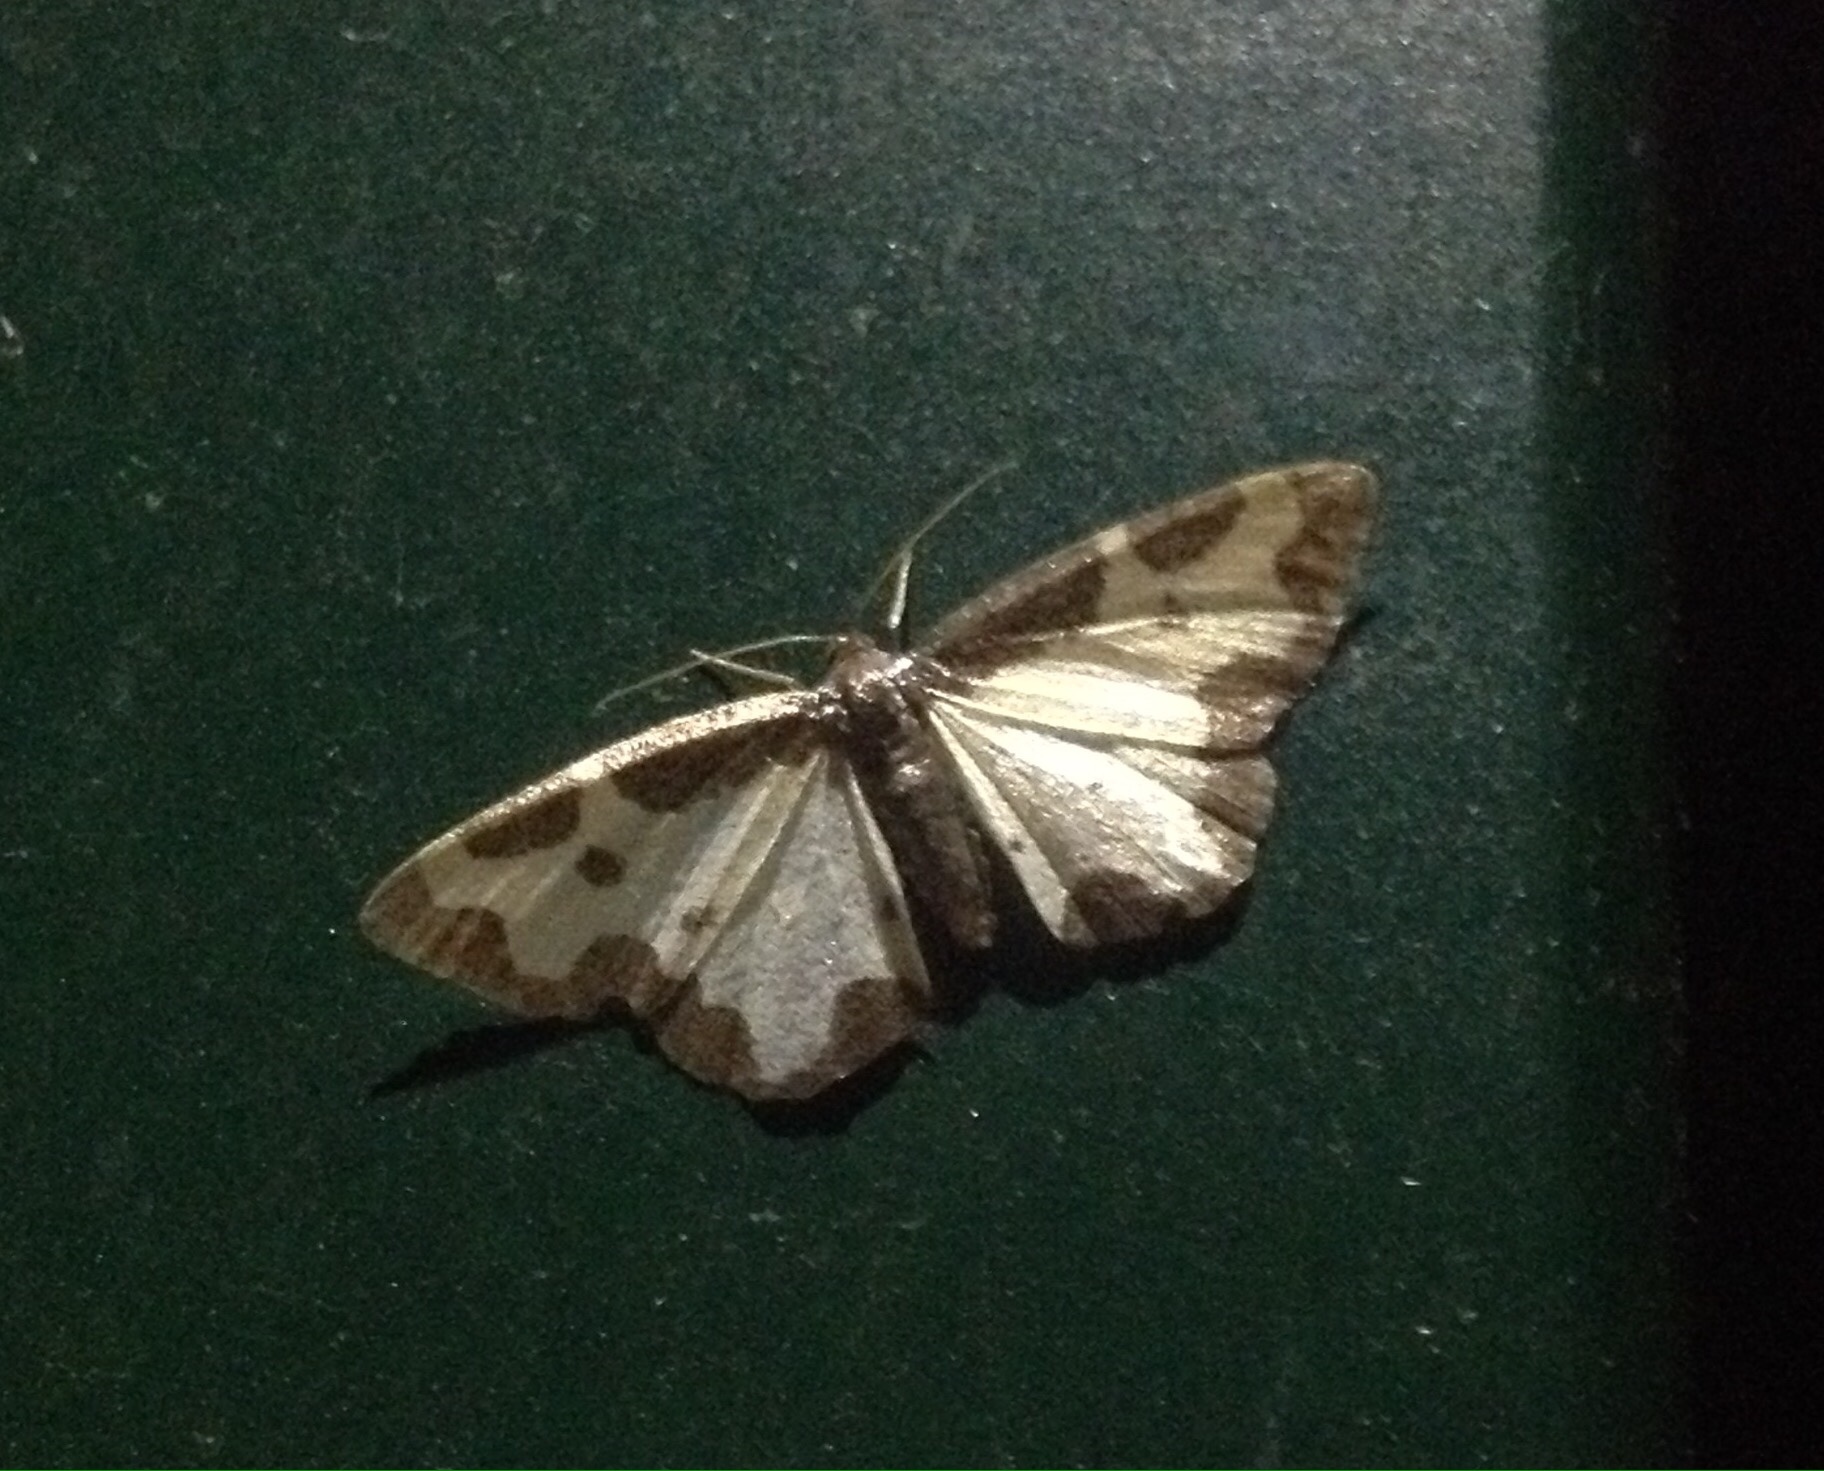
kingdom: Animalia
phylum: Arthropoda
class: Insecta
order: Lepidoptera
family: Geometridae
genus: Lomaspilis
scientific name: Lomaspilis marginata
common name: Clouded border
